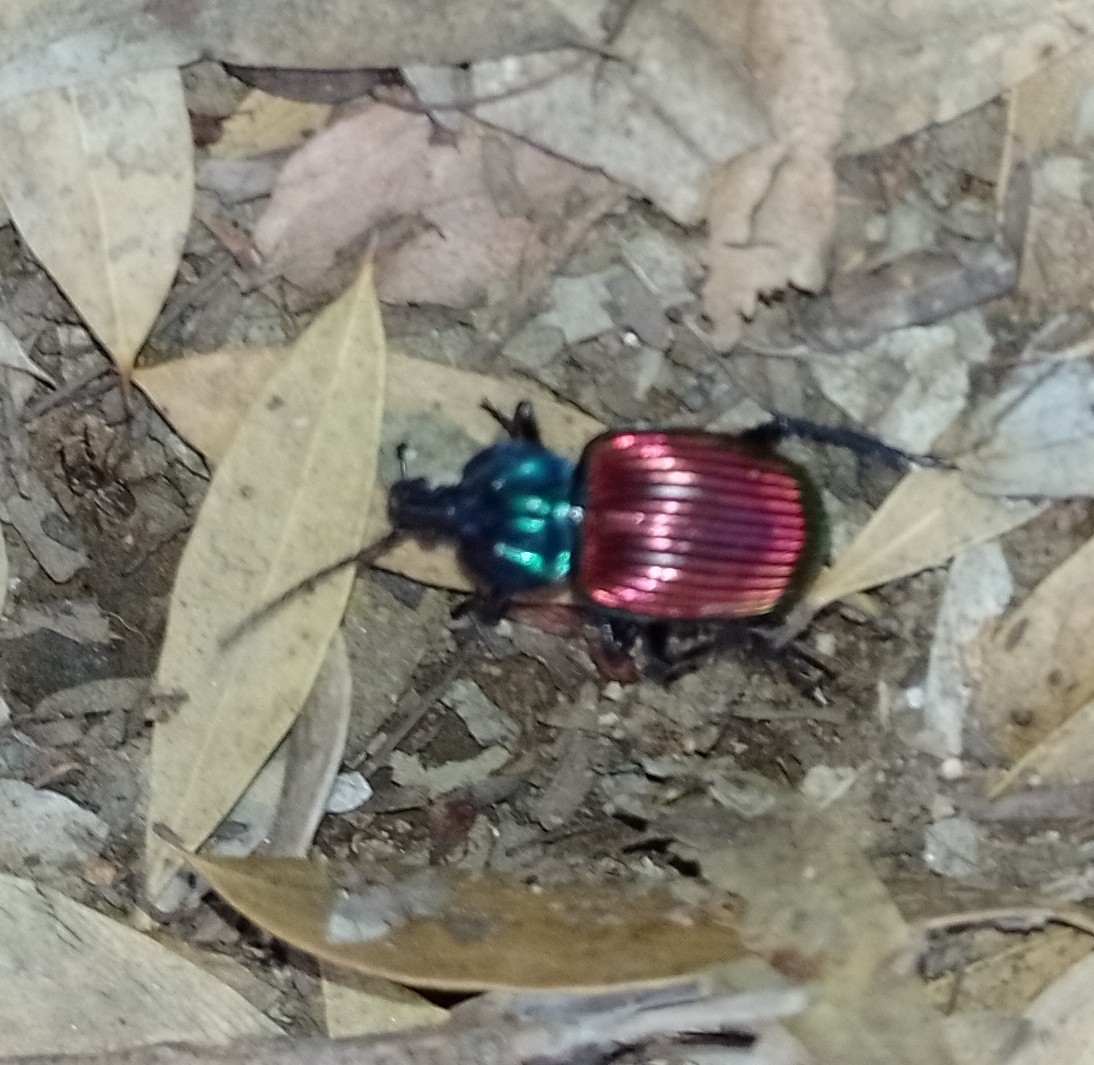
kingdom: Animalia
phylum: Arthropoda
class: Insecta
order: Coleoptera
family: Carabidae
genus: Brachygnathus
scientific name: Brachygnathus festivus
